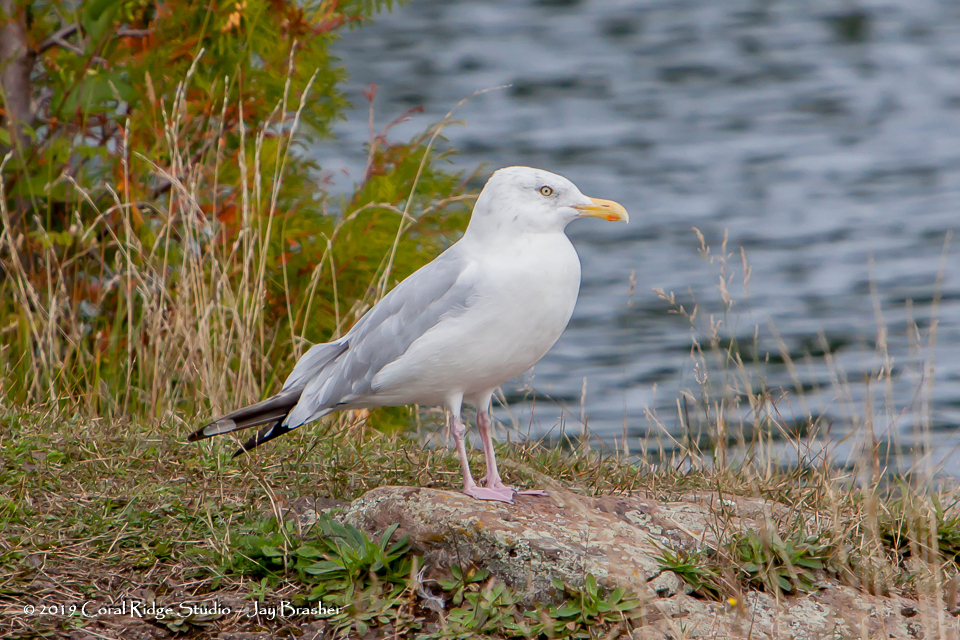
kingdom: Animalia
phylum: Chordata
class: Aves
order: Charadriiformes
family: Laridae
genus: Larus
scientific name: Larus argentatus
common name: Herring gull
